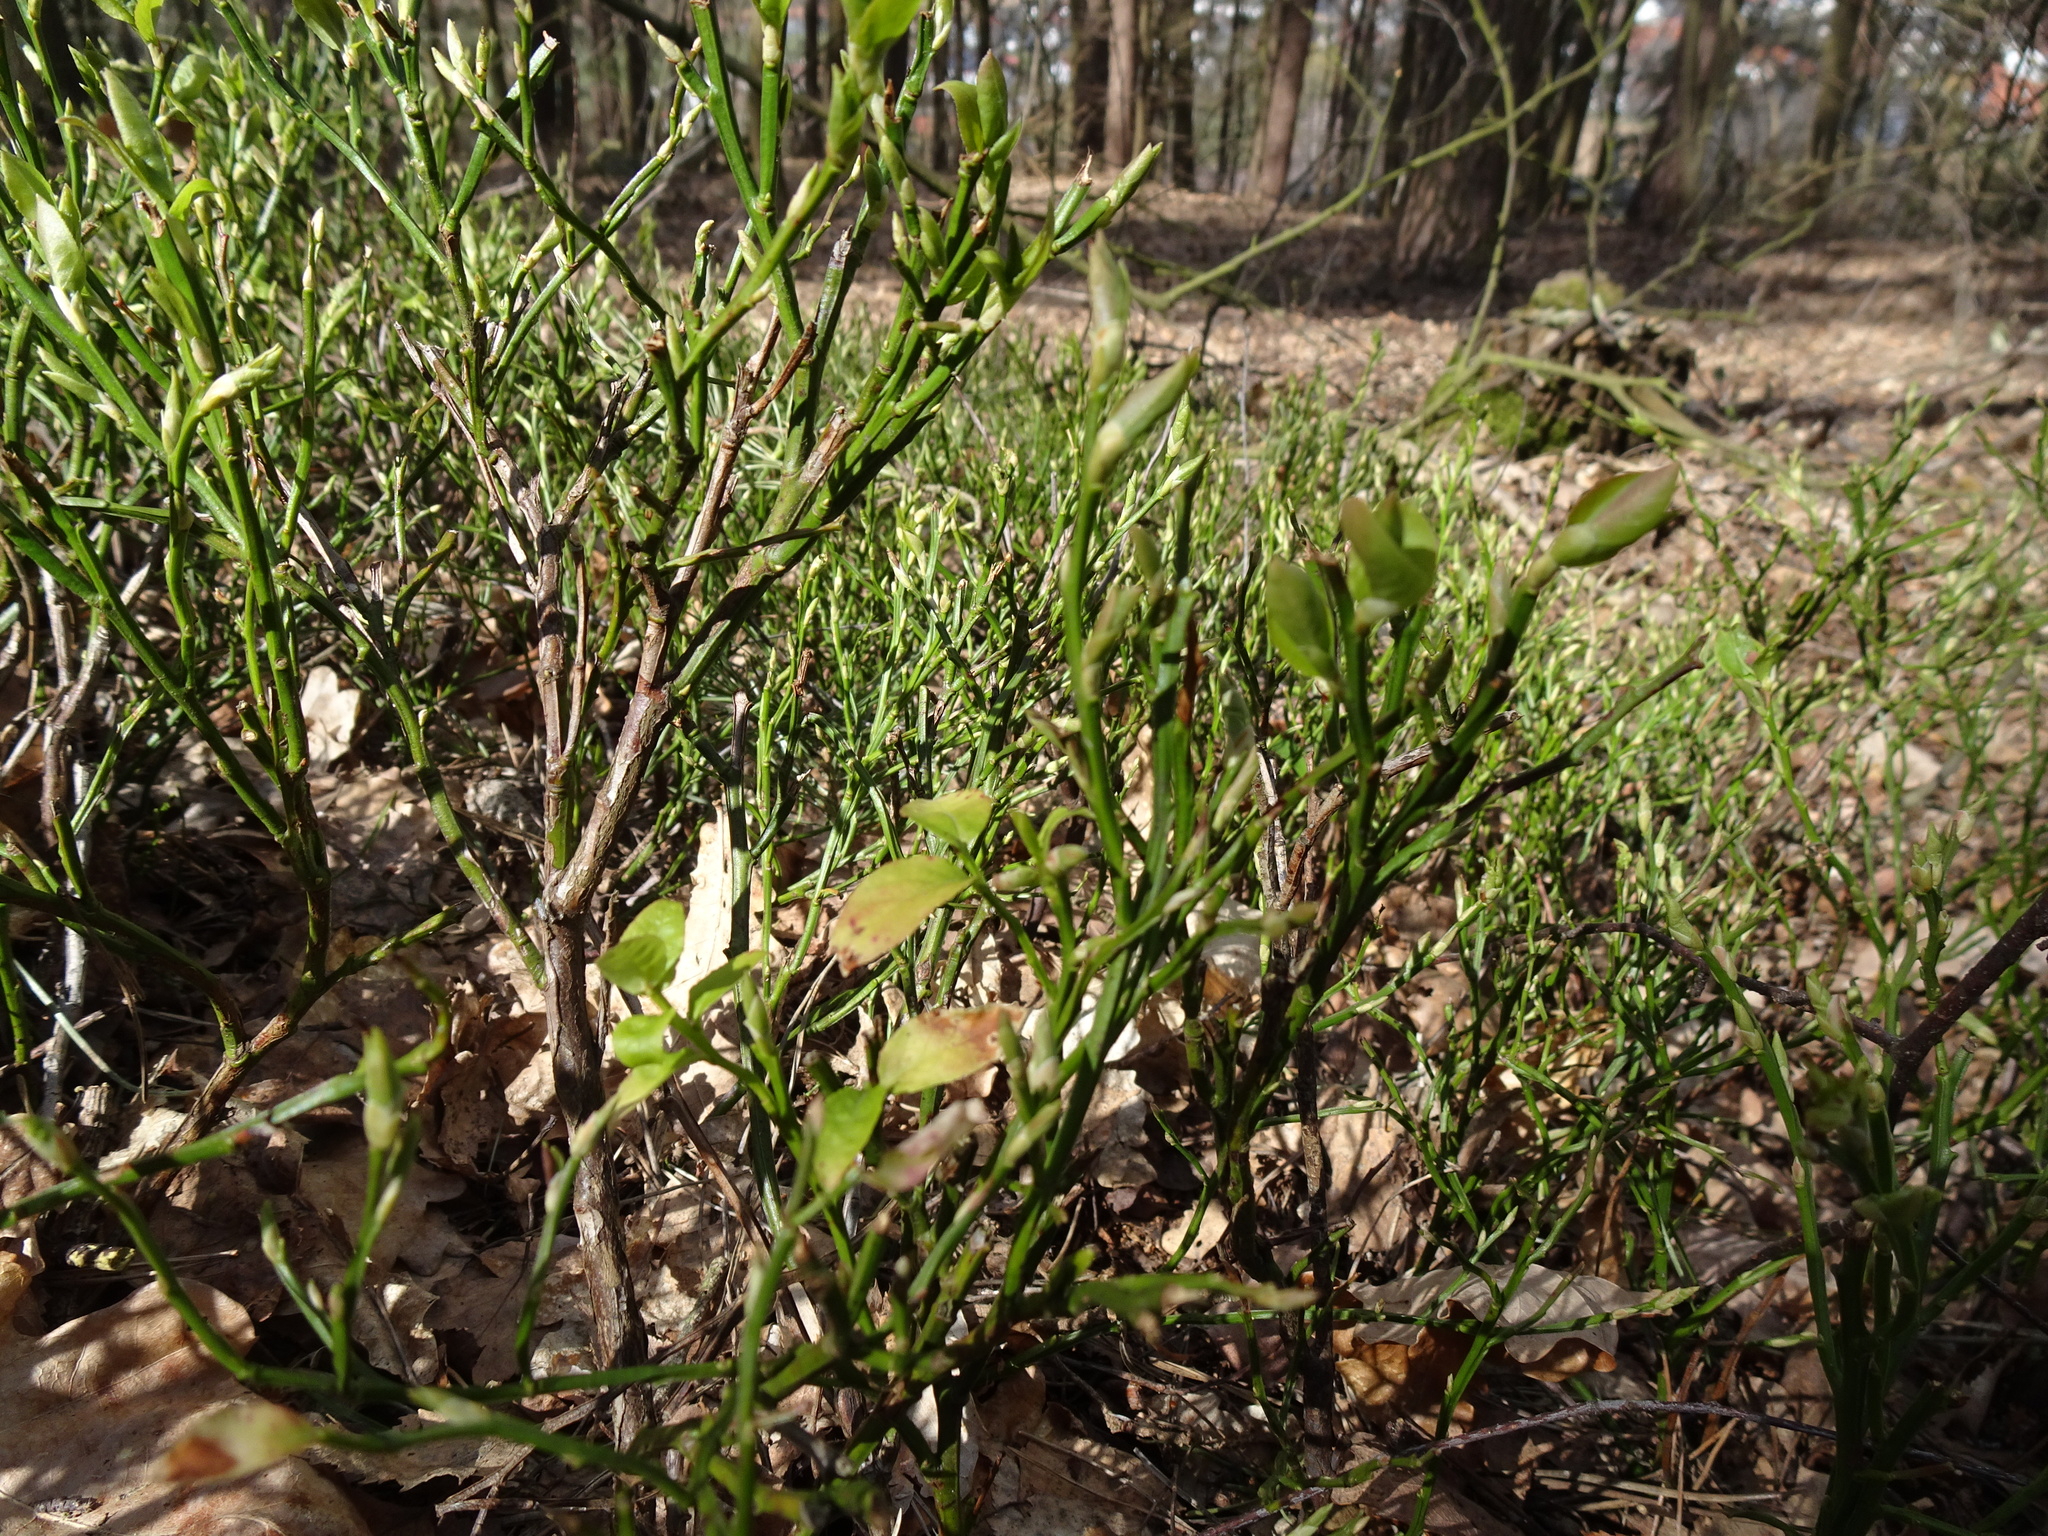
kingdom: Plantae
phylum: Tracheophyta
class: Magnoliopsida
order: Ericales
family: Ericaceae
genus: Vaccinium
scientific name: Vaccinium myrtillus
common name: Bilberry
